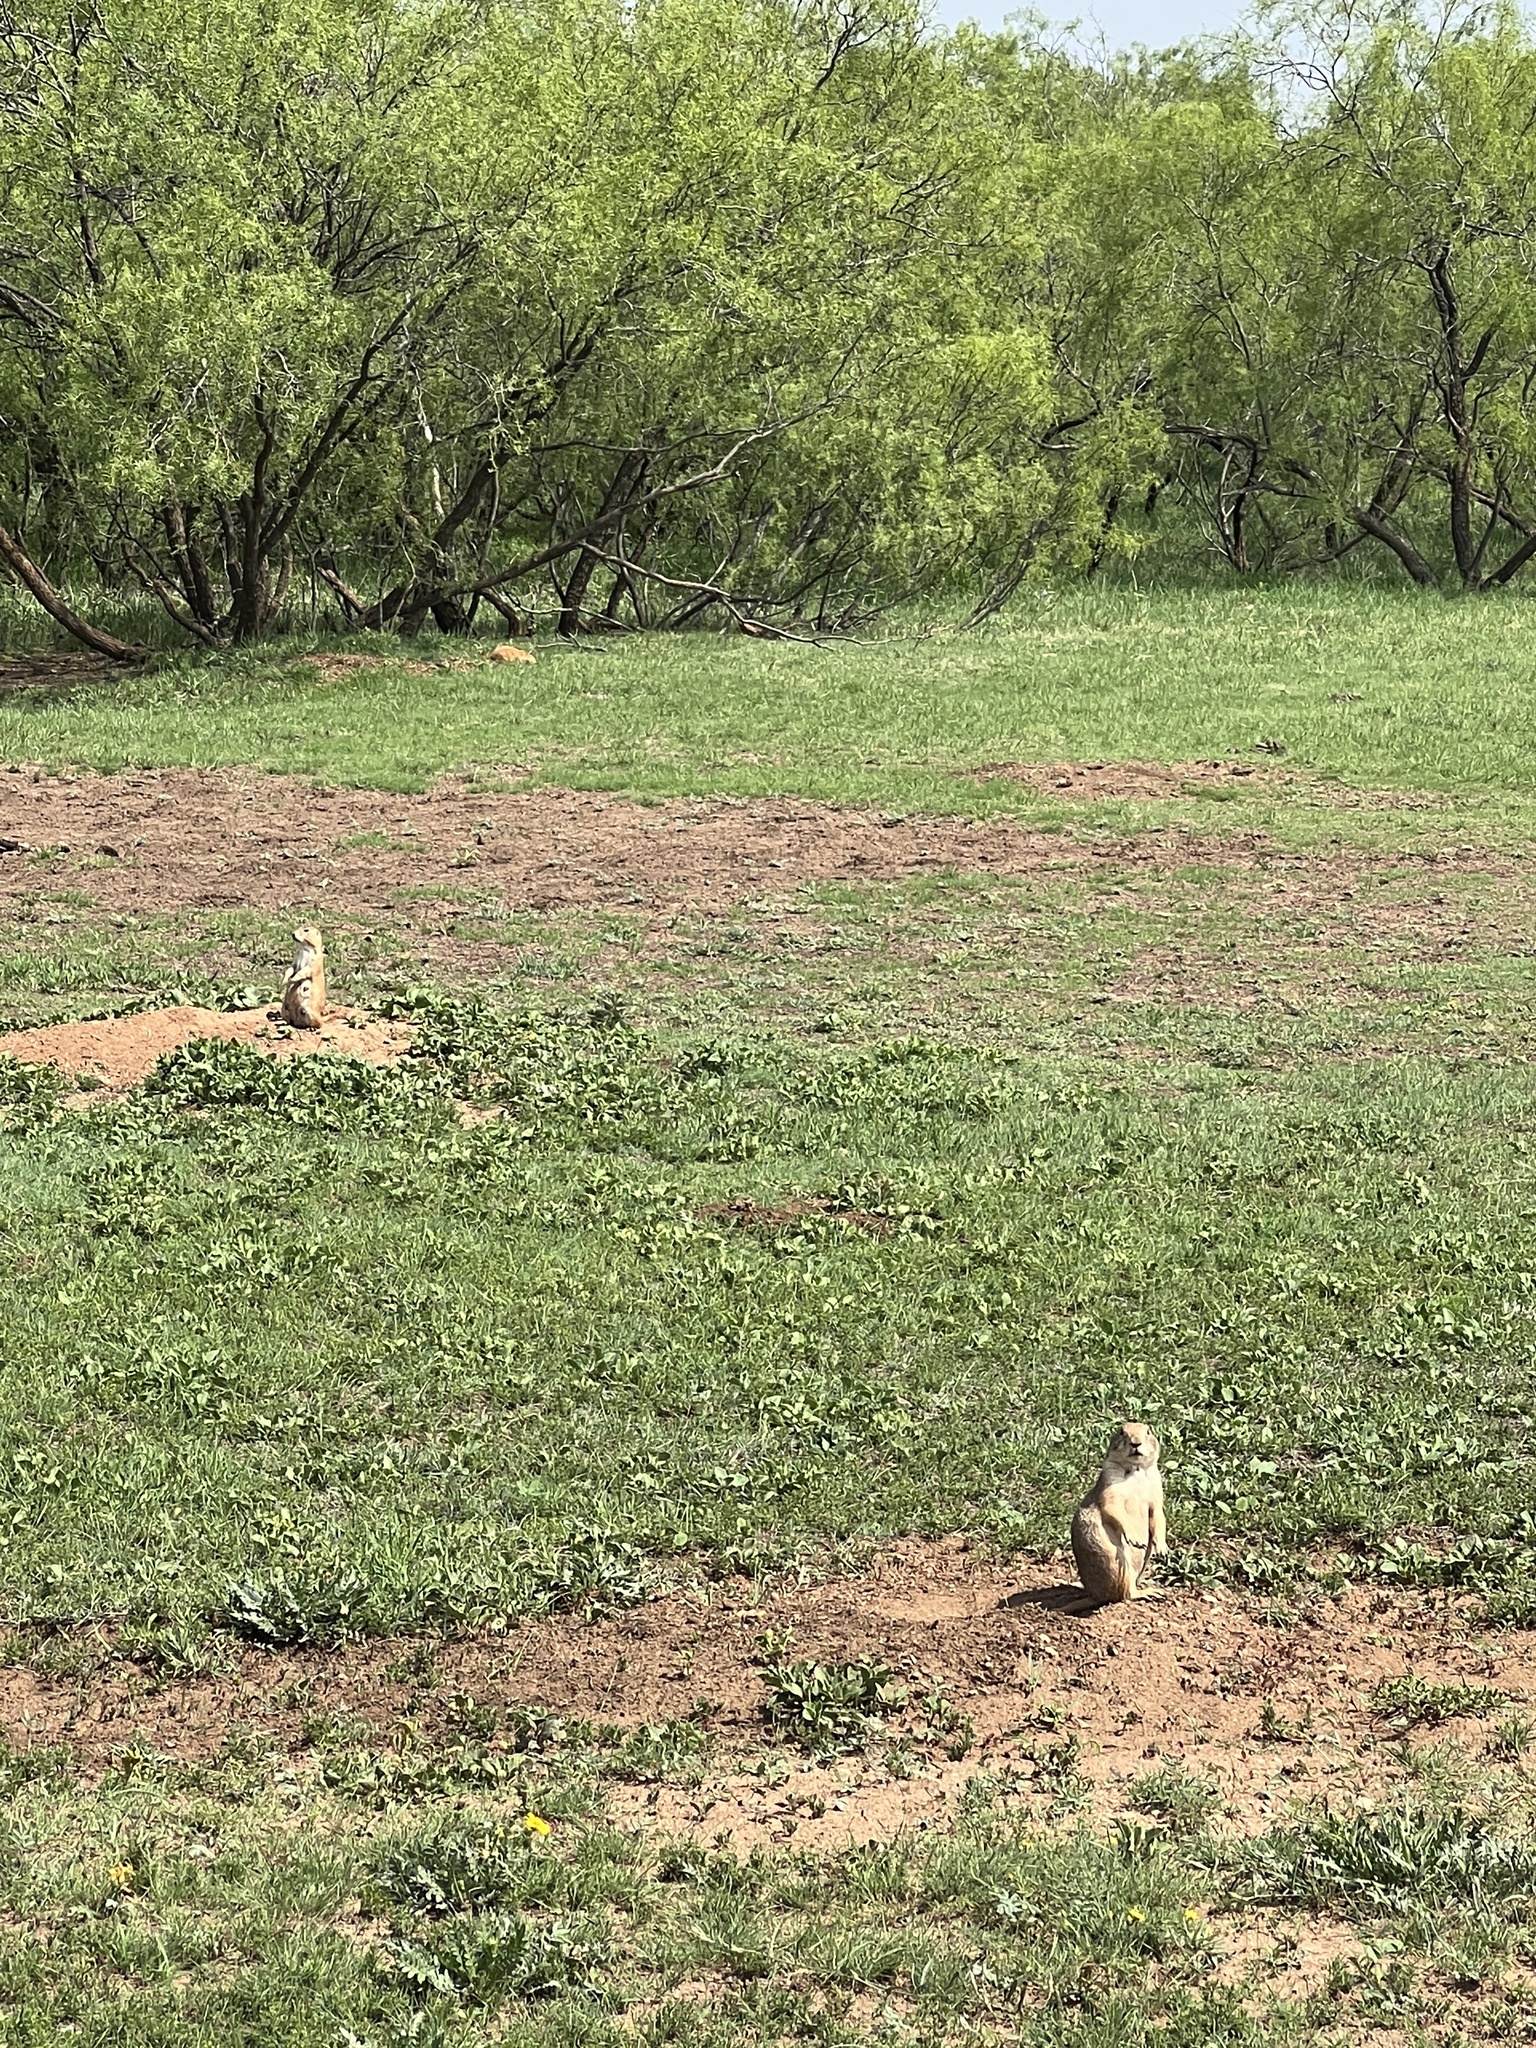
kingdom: Animalia
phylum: Chordata
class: Mammalia
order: Rodentia
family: Sciuridae
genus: Cynomys
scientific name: Cynomys ludovicianus
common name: Black-tailed prairie dog
